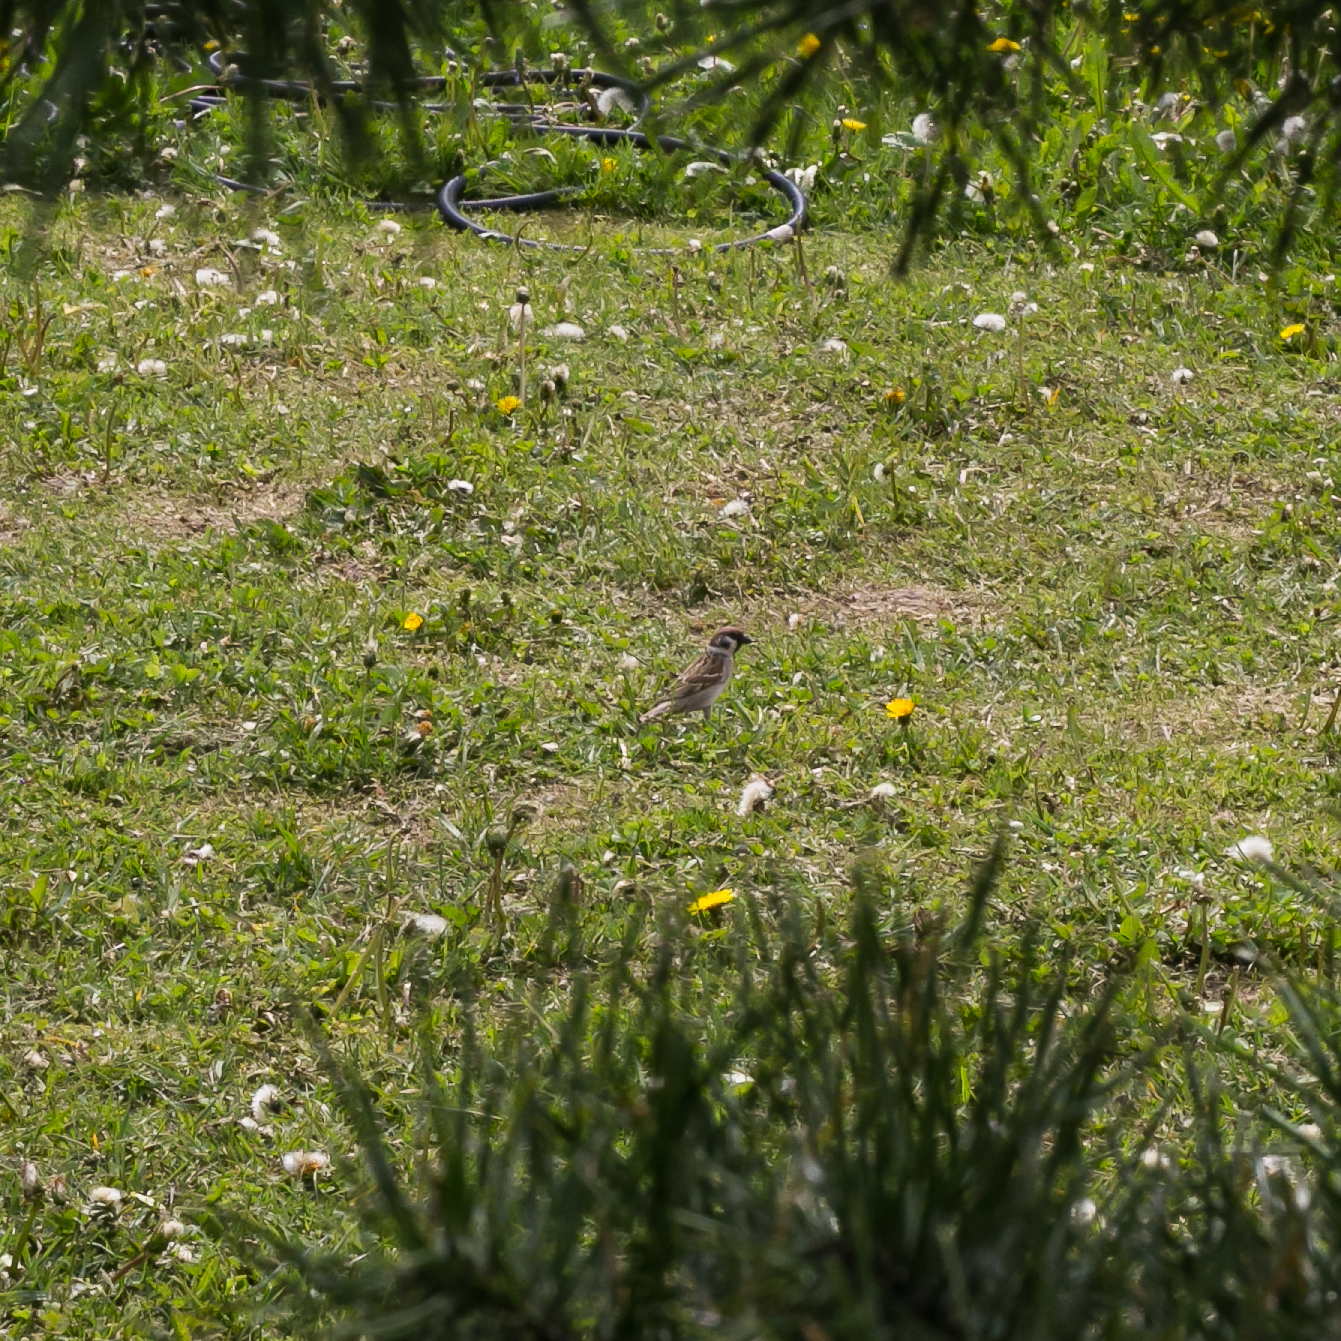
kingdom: Animalia
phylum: Chordata
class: Aves
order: Passeriformes
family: Passeridae
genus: Passer
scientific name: Passer montanus
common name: Eurasian tree sparrow
